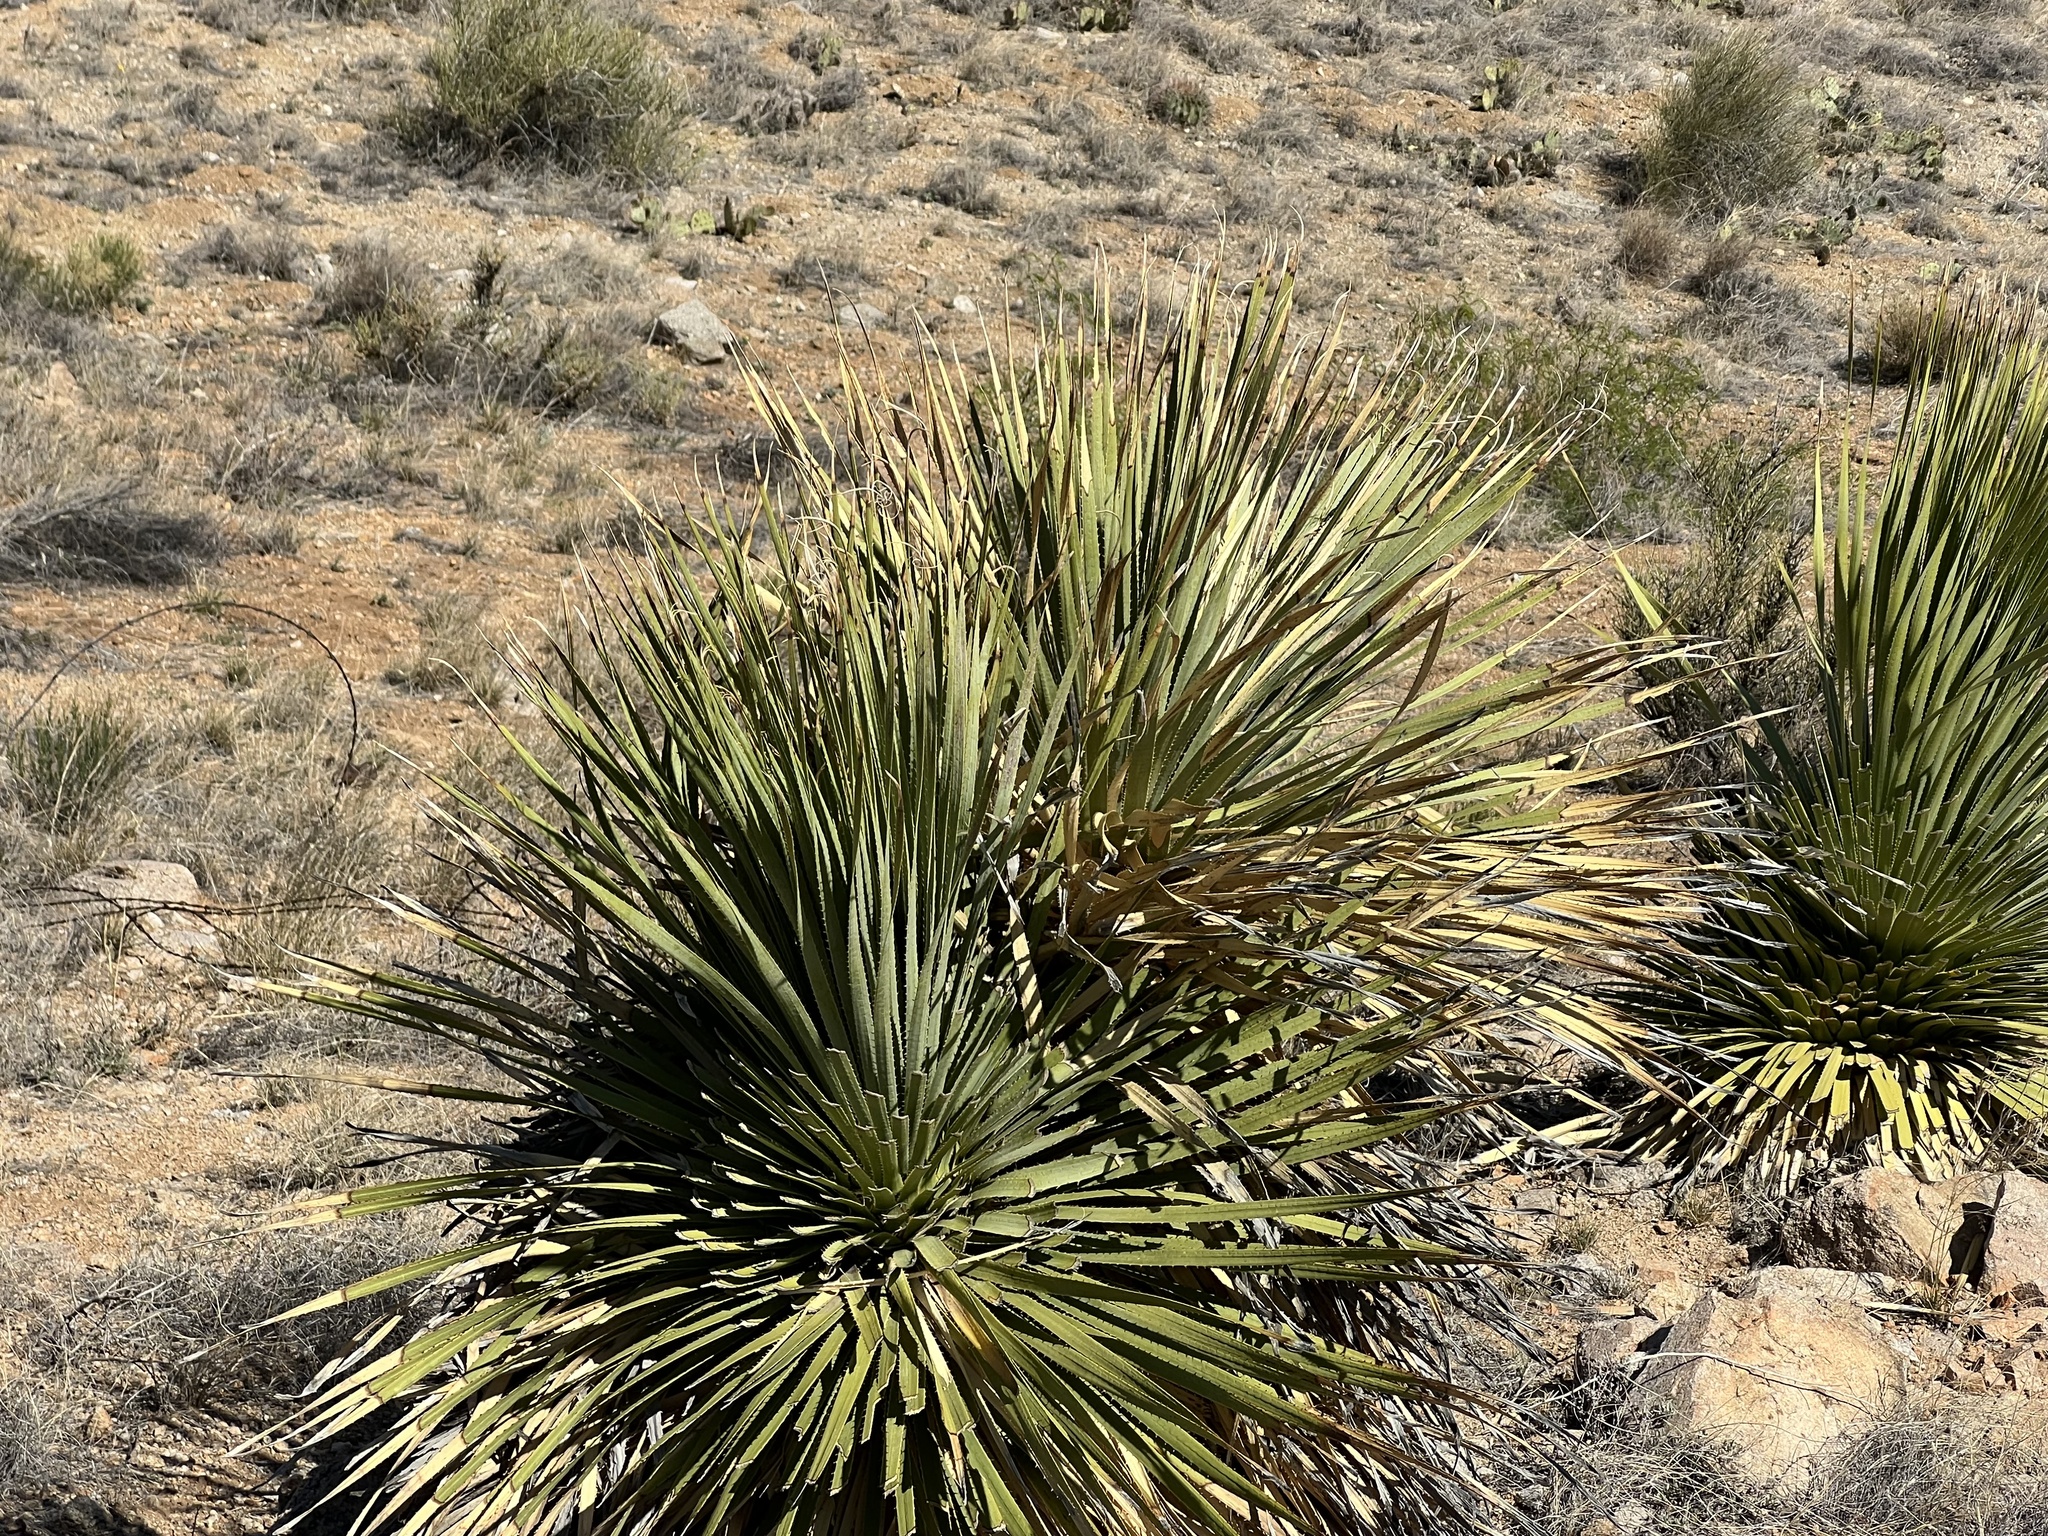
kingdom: Plantae
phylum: Tracheophyta
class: Liliopsida
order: Asparagales
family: Asparagaceae
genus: Dasylirion
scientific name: Dasylirion wheeleri
